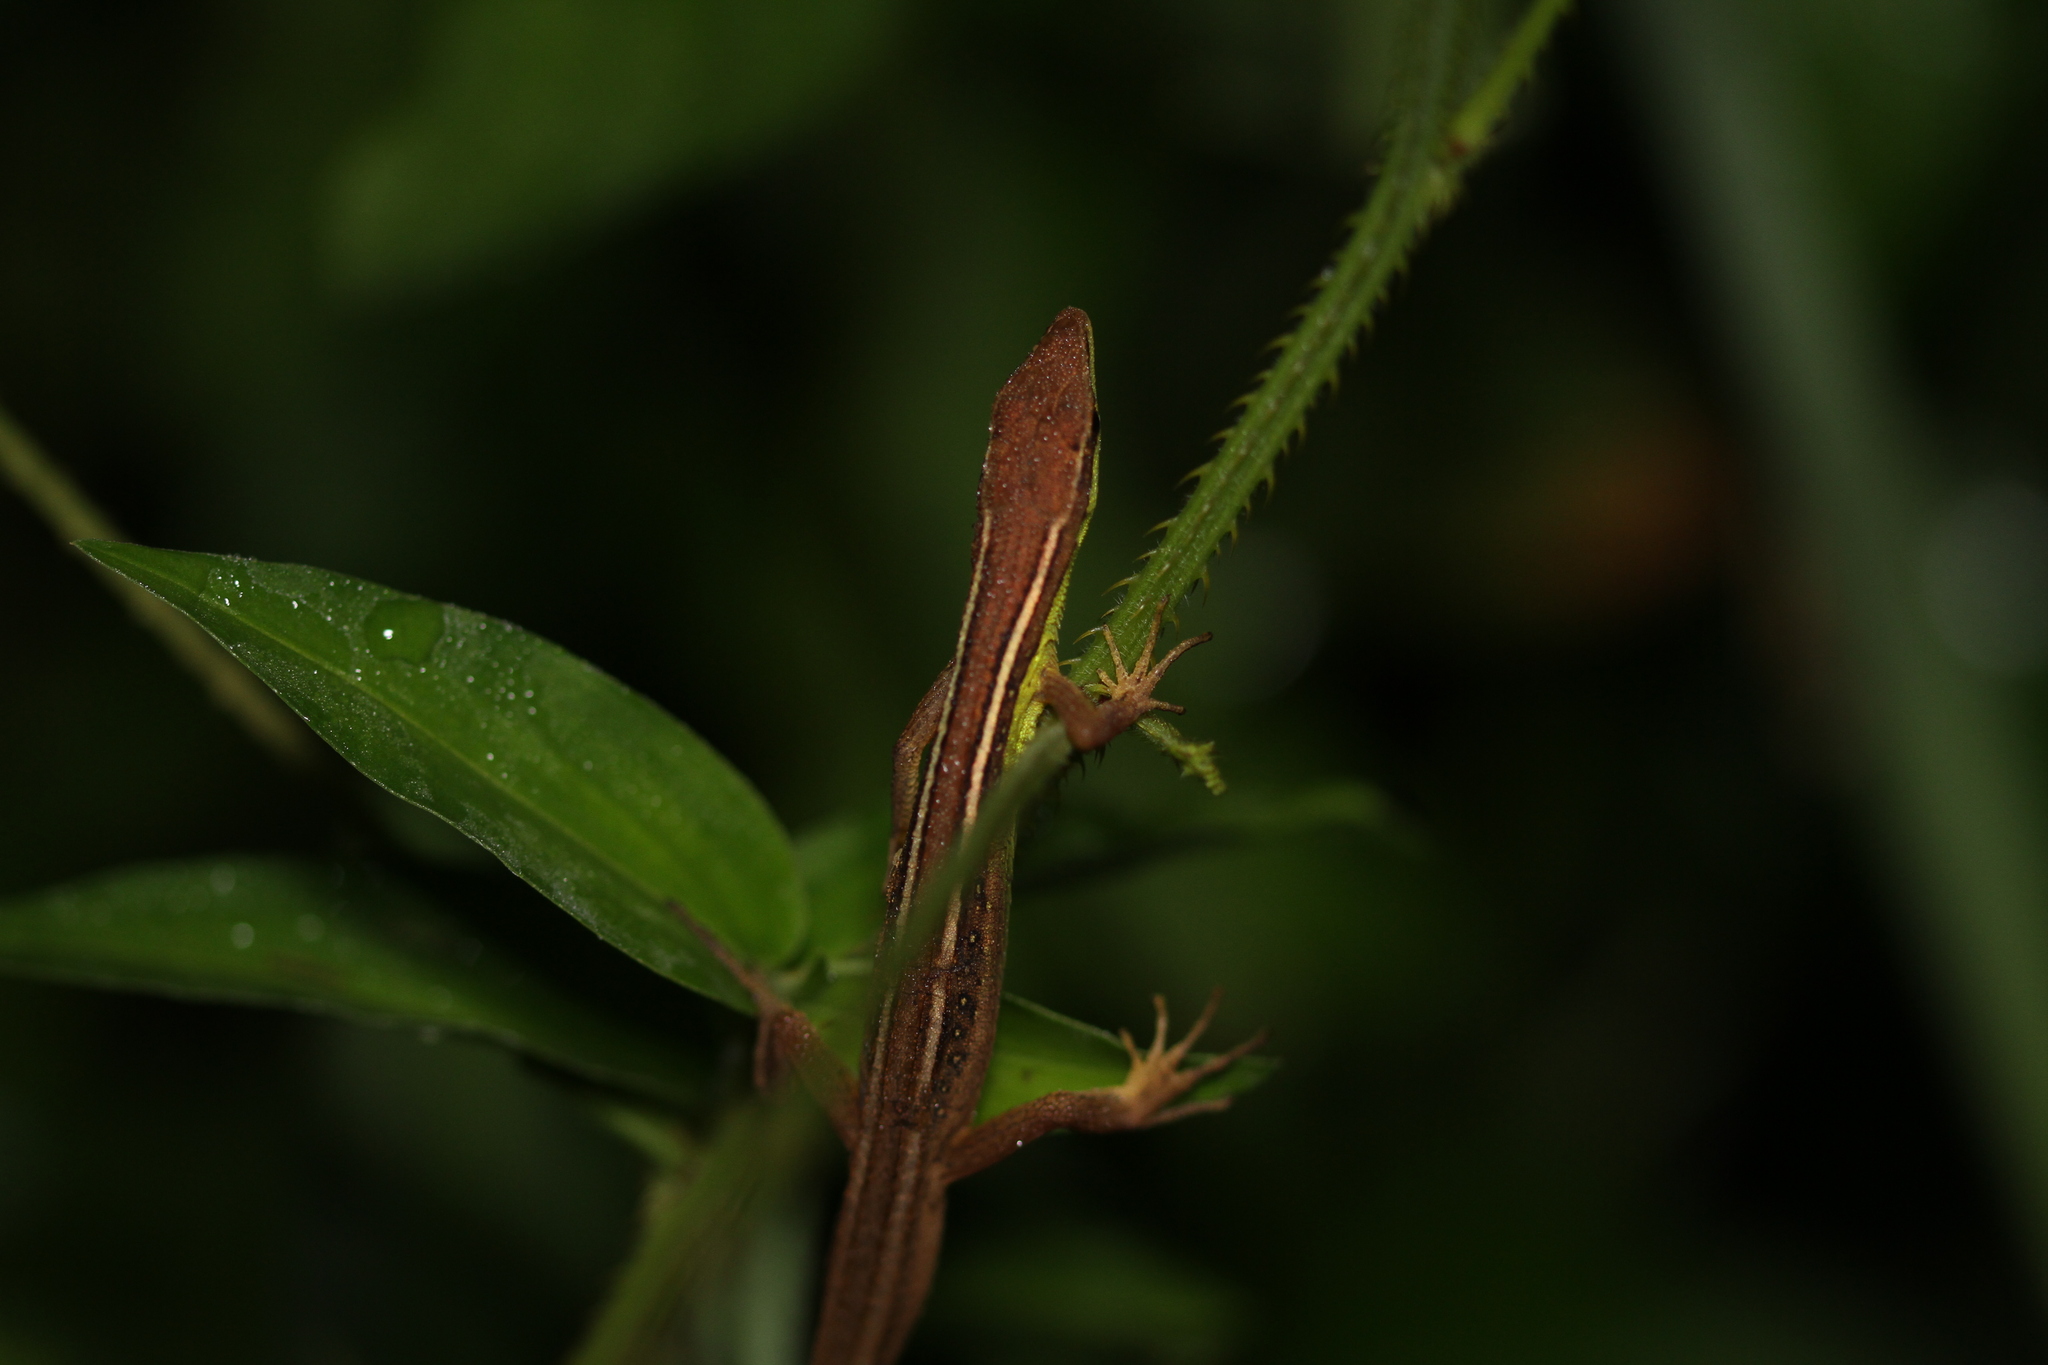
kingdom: Animalia
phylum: Chordata
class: Squamata
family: Lacertidae
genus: Takydromus
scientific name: Takydromus sexlineatus
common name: Asian grass lizard
